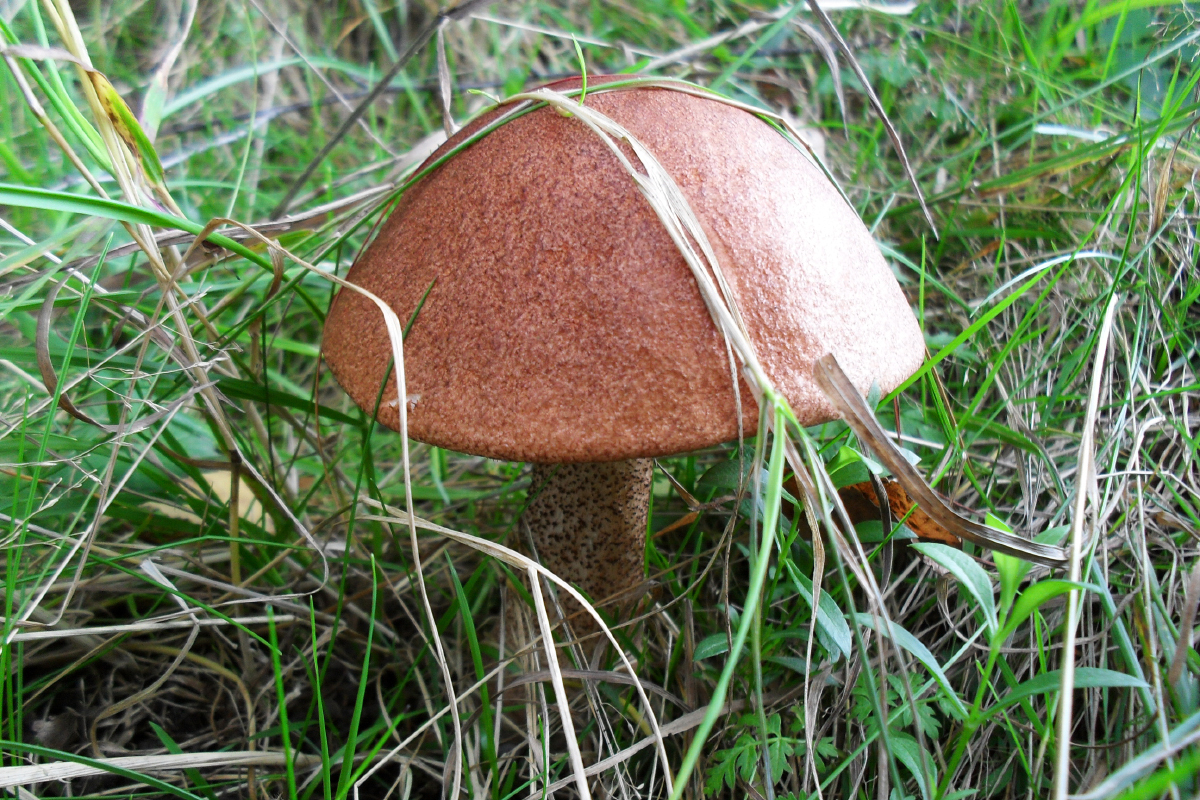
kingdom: Fungi
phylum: Basidiomycota
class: Agaricomycetes
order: Boletales
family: Boletaceae
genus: Leccinum
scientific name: Leccinum aurantiacum
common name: Orange bolete
